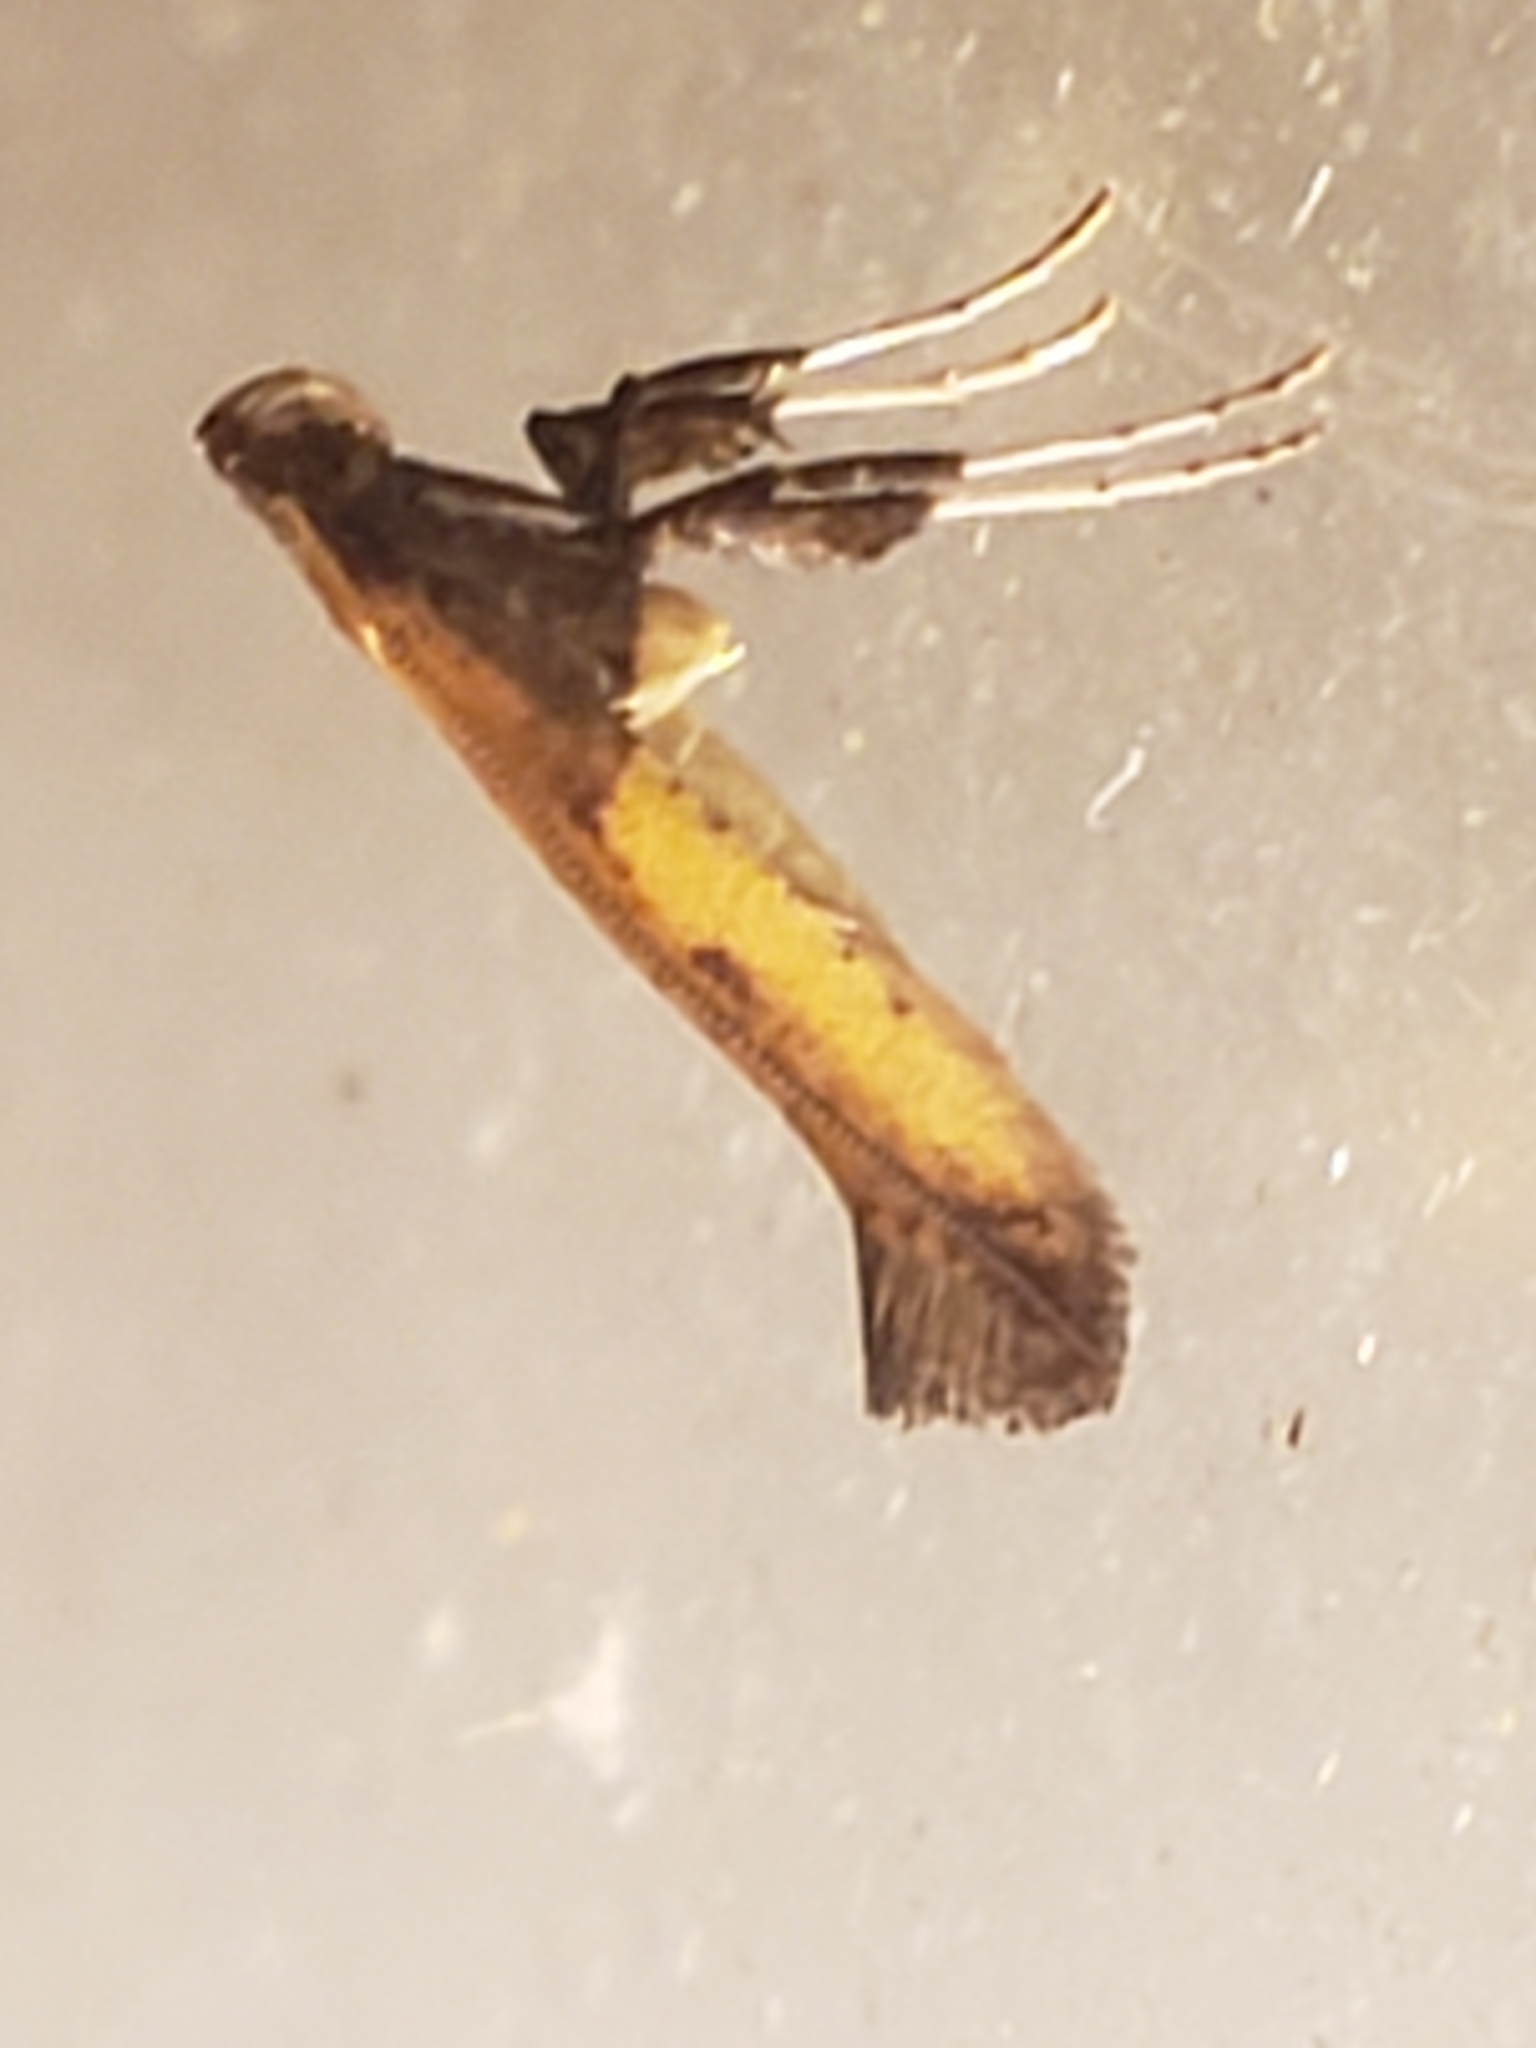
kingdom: Animalia
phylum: Arthropoda
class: Insecta
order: Lepidoptera
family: Gracillariidae
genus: Caloptilia
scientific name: Caloptilia azaleella
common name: Azalea leafminer
